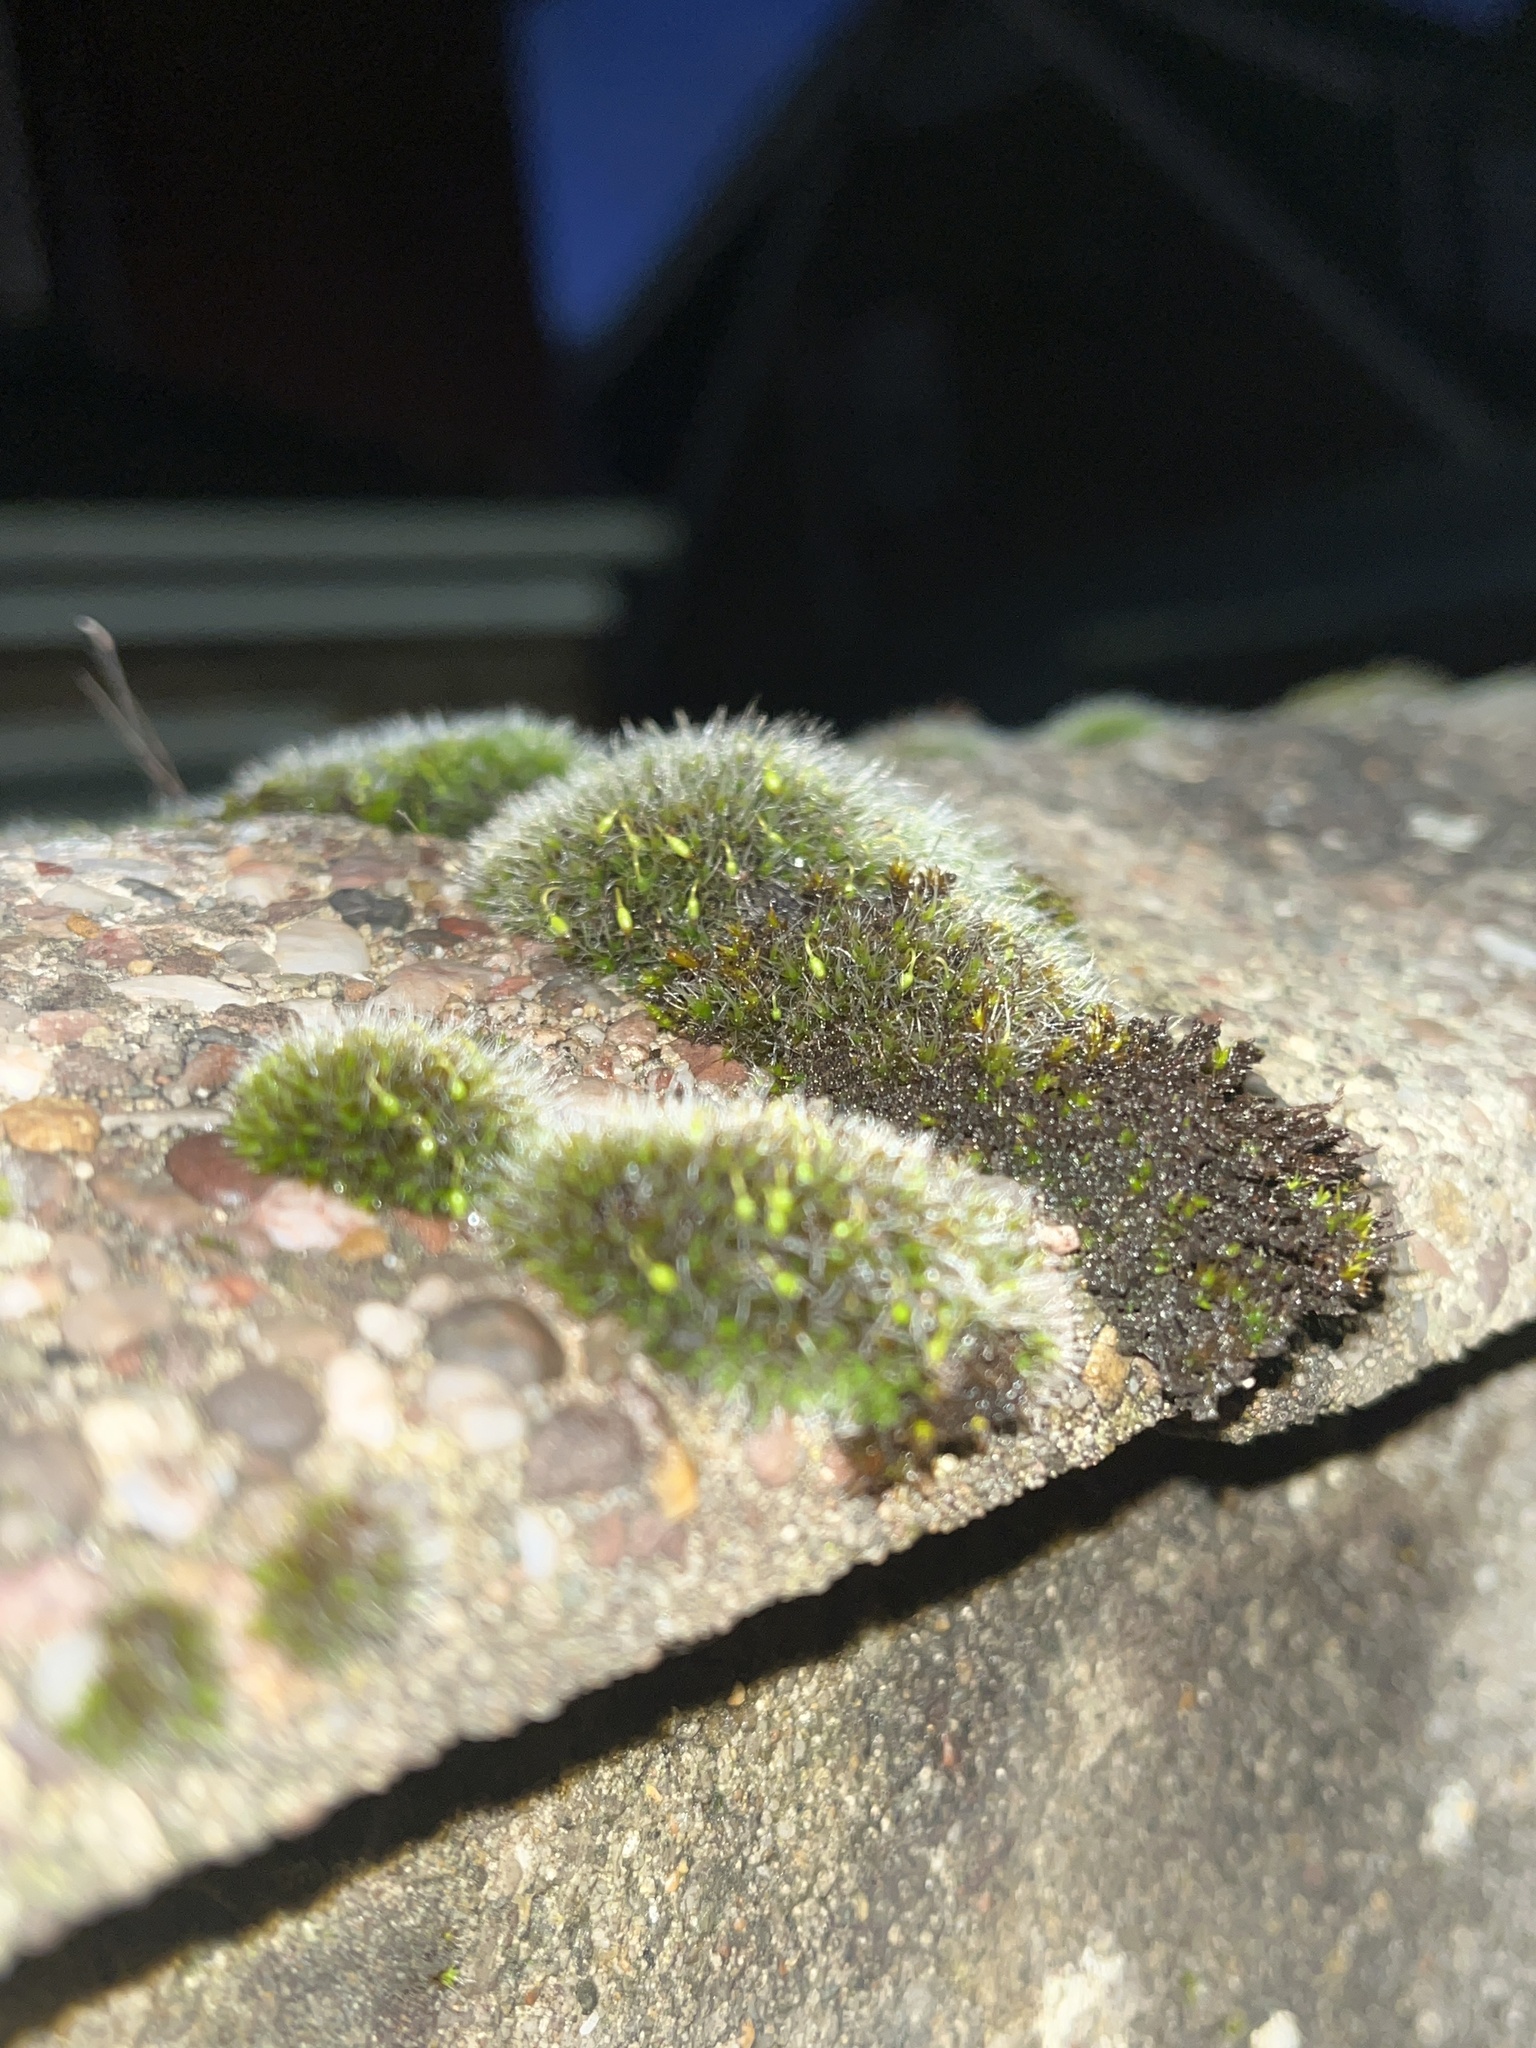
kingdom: Plantae
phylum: Bryophyta
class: Bryopsida
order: Grimmiales
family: Grimmiaceae
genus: Grimmia
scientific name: Grimmia pulvinata
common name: Grey-cushioned grimmia
